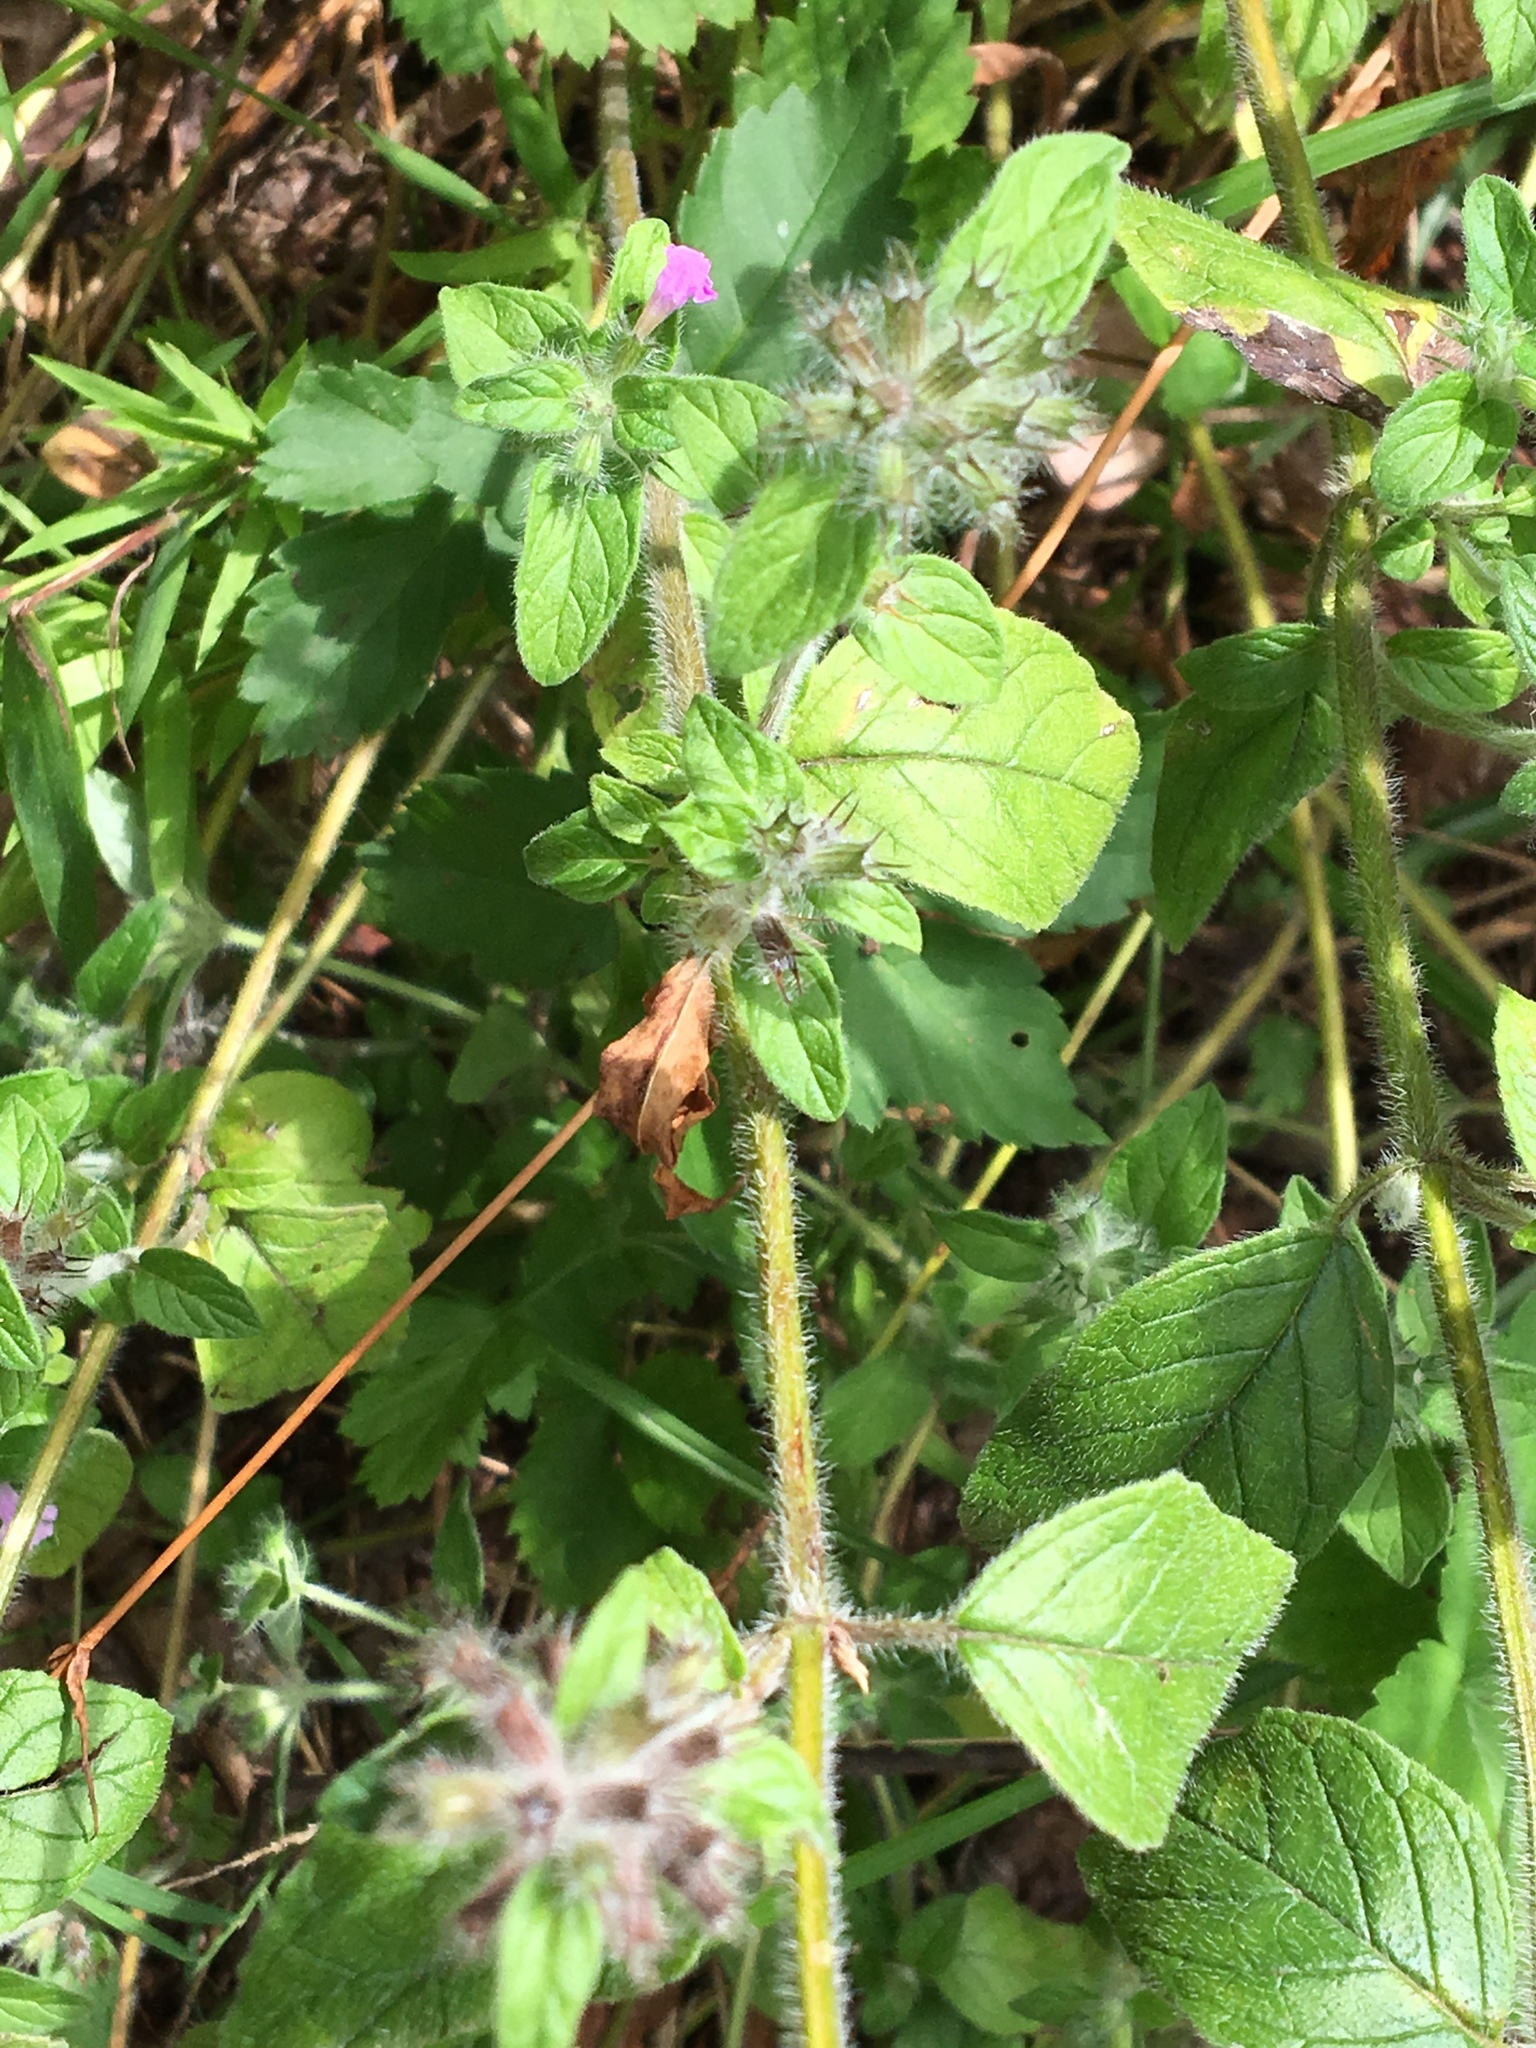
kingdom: Plantae
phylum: Tracheophyta
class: Magnoliopsida
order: Lamiales
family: Lamiaceae
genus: Clinopodium
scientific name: Clinopodium vulgare
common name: Wild basil
